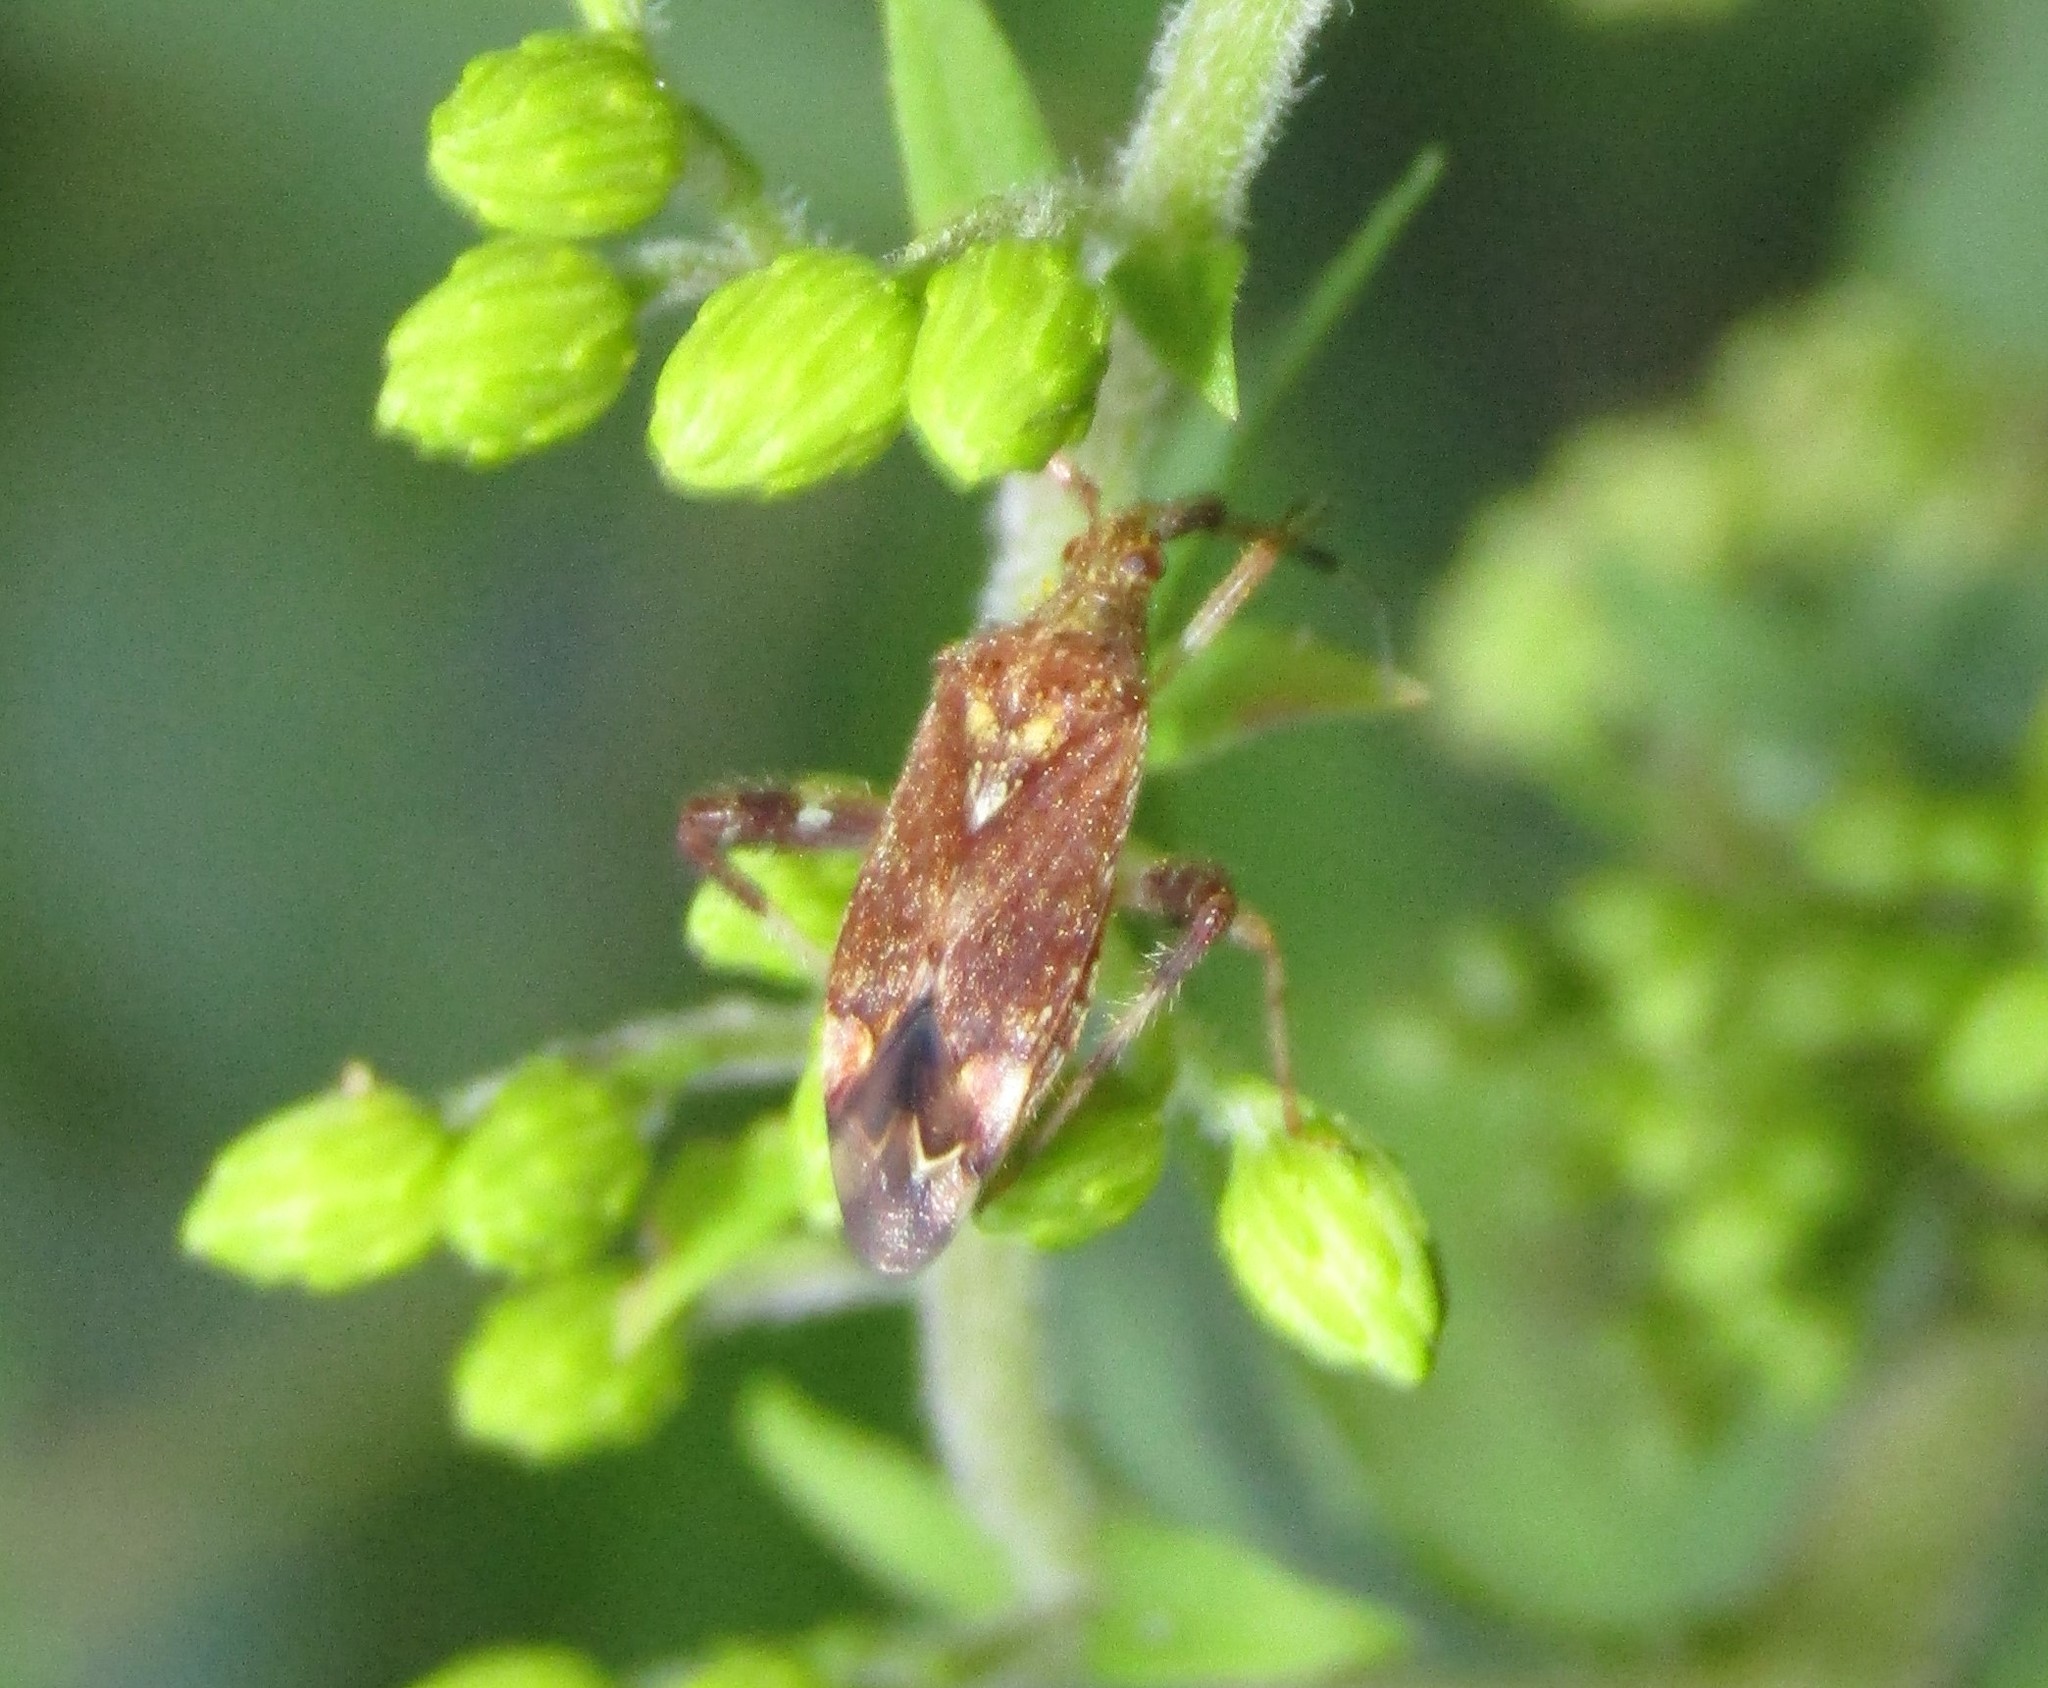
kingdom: Animalia
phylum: Arthropoda
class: Insecta
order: Hemiptera
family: Miridae
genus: Neurocolpus
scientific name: Neurocolpus
